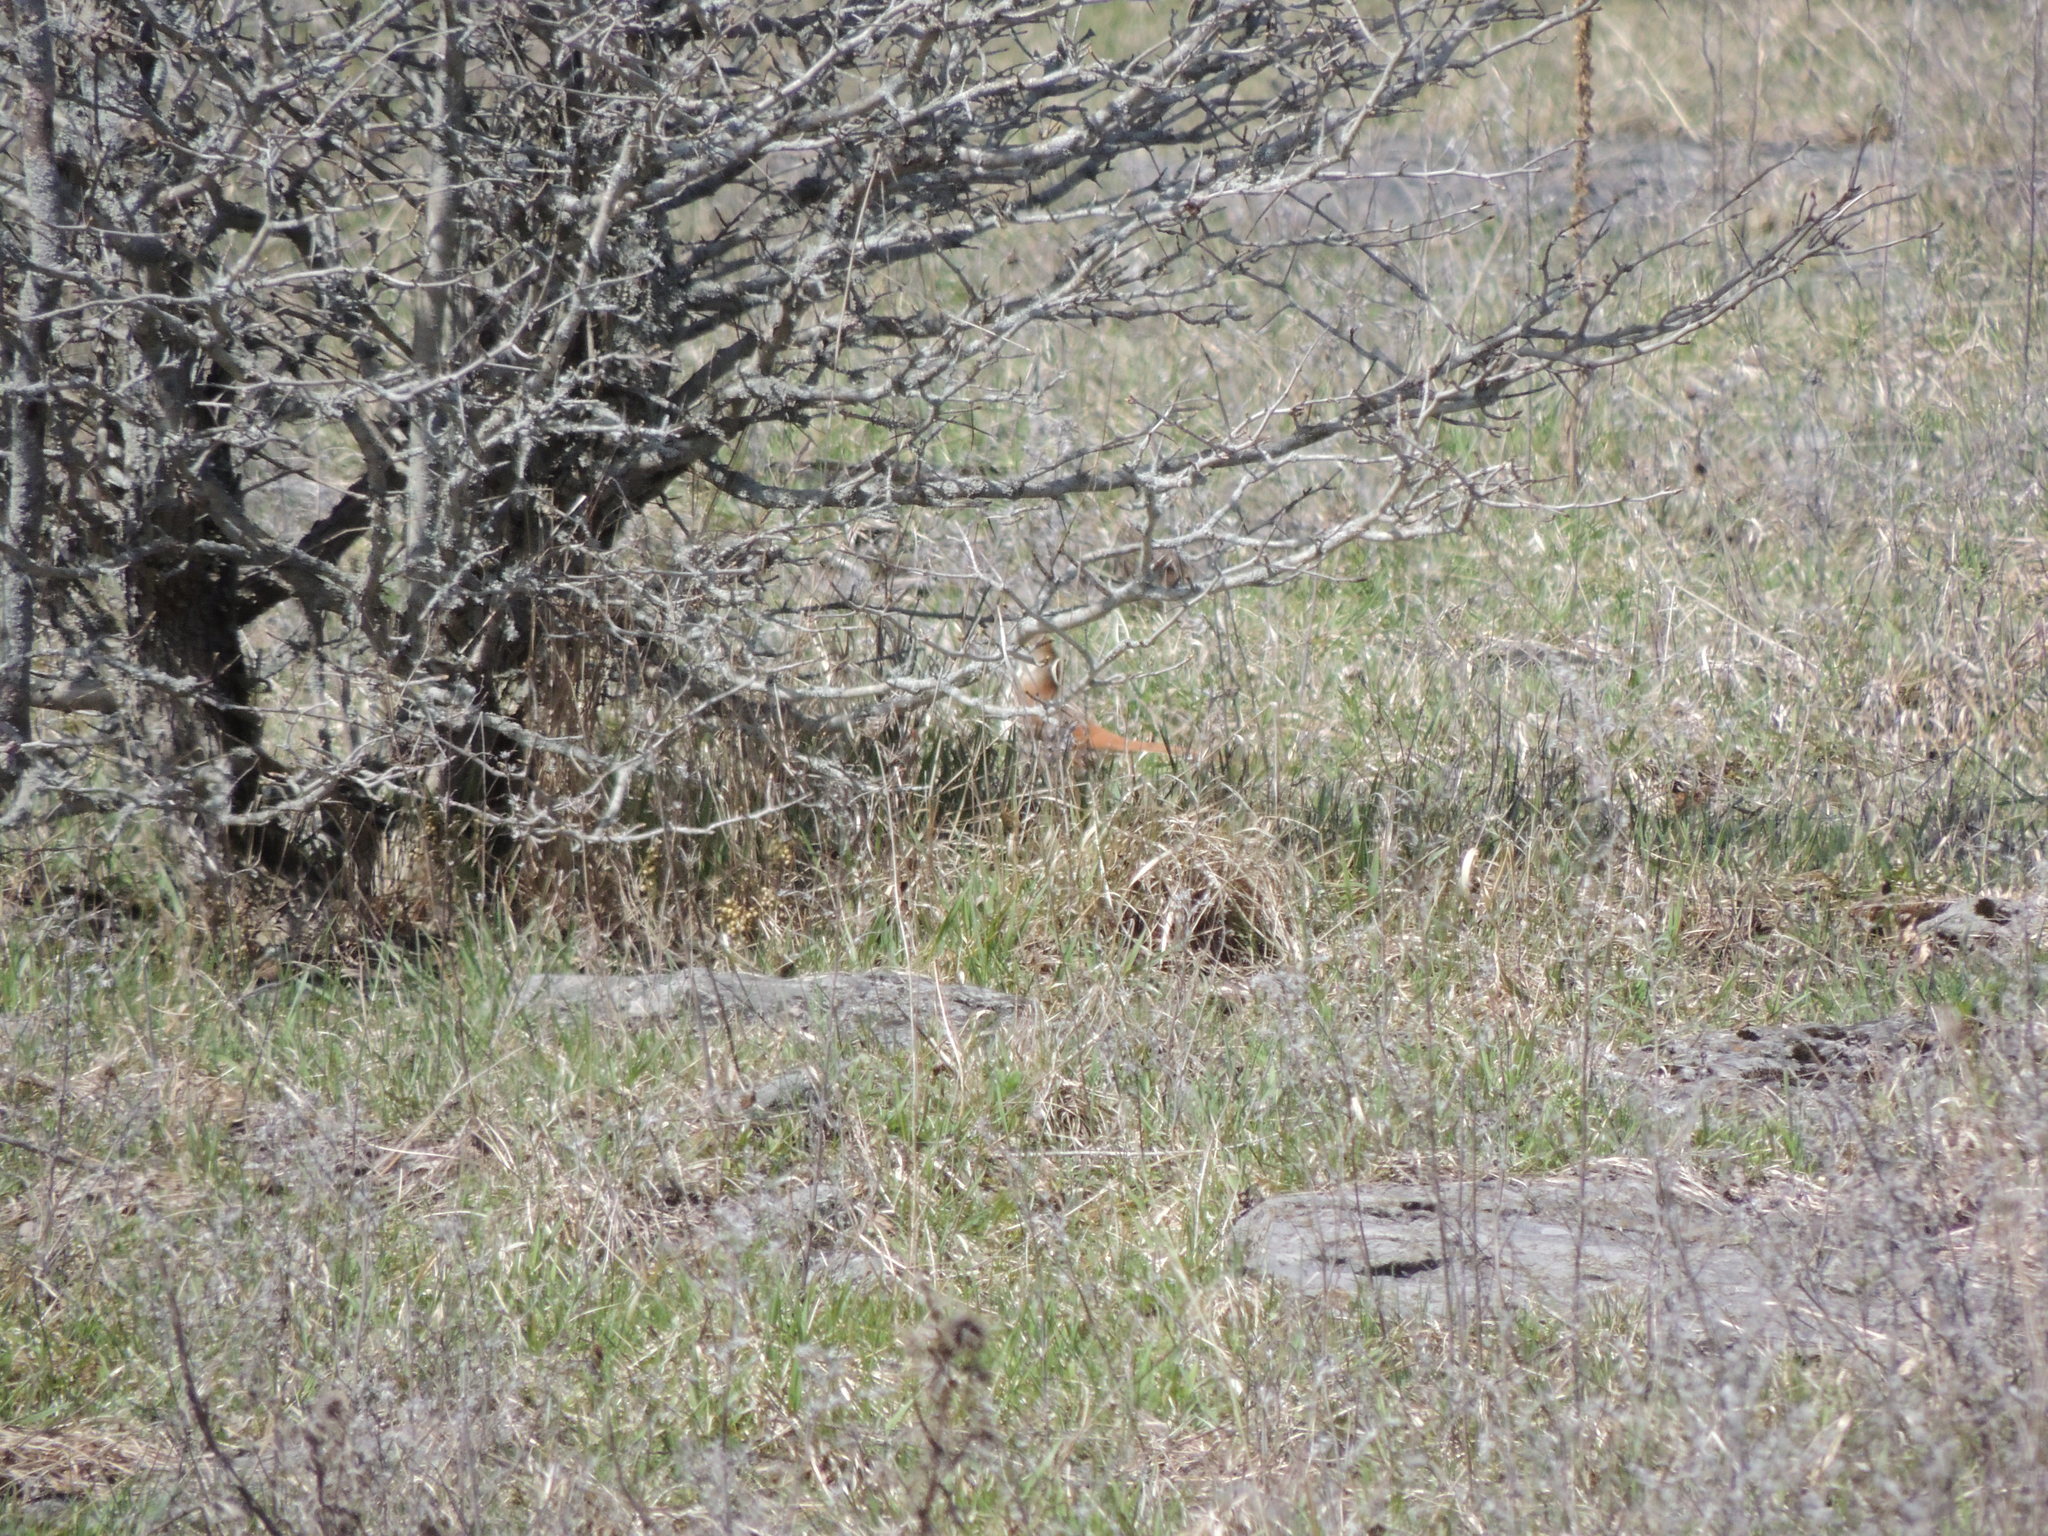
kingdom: Animalia
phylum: Chordata
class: Aves
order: Passeriformes
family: Mimidae
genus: Toxostoma
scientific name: Toxostoma rufum
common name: Brown thrasher
